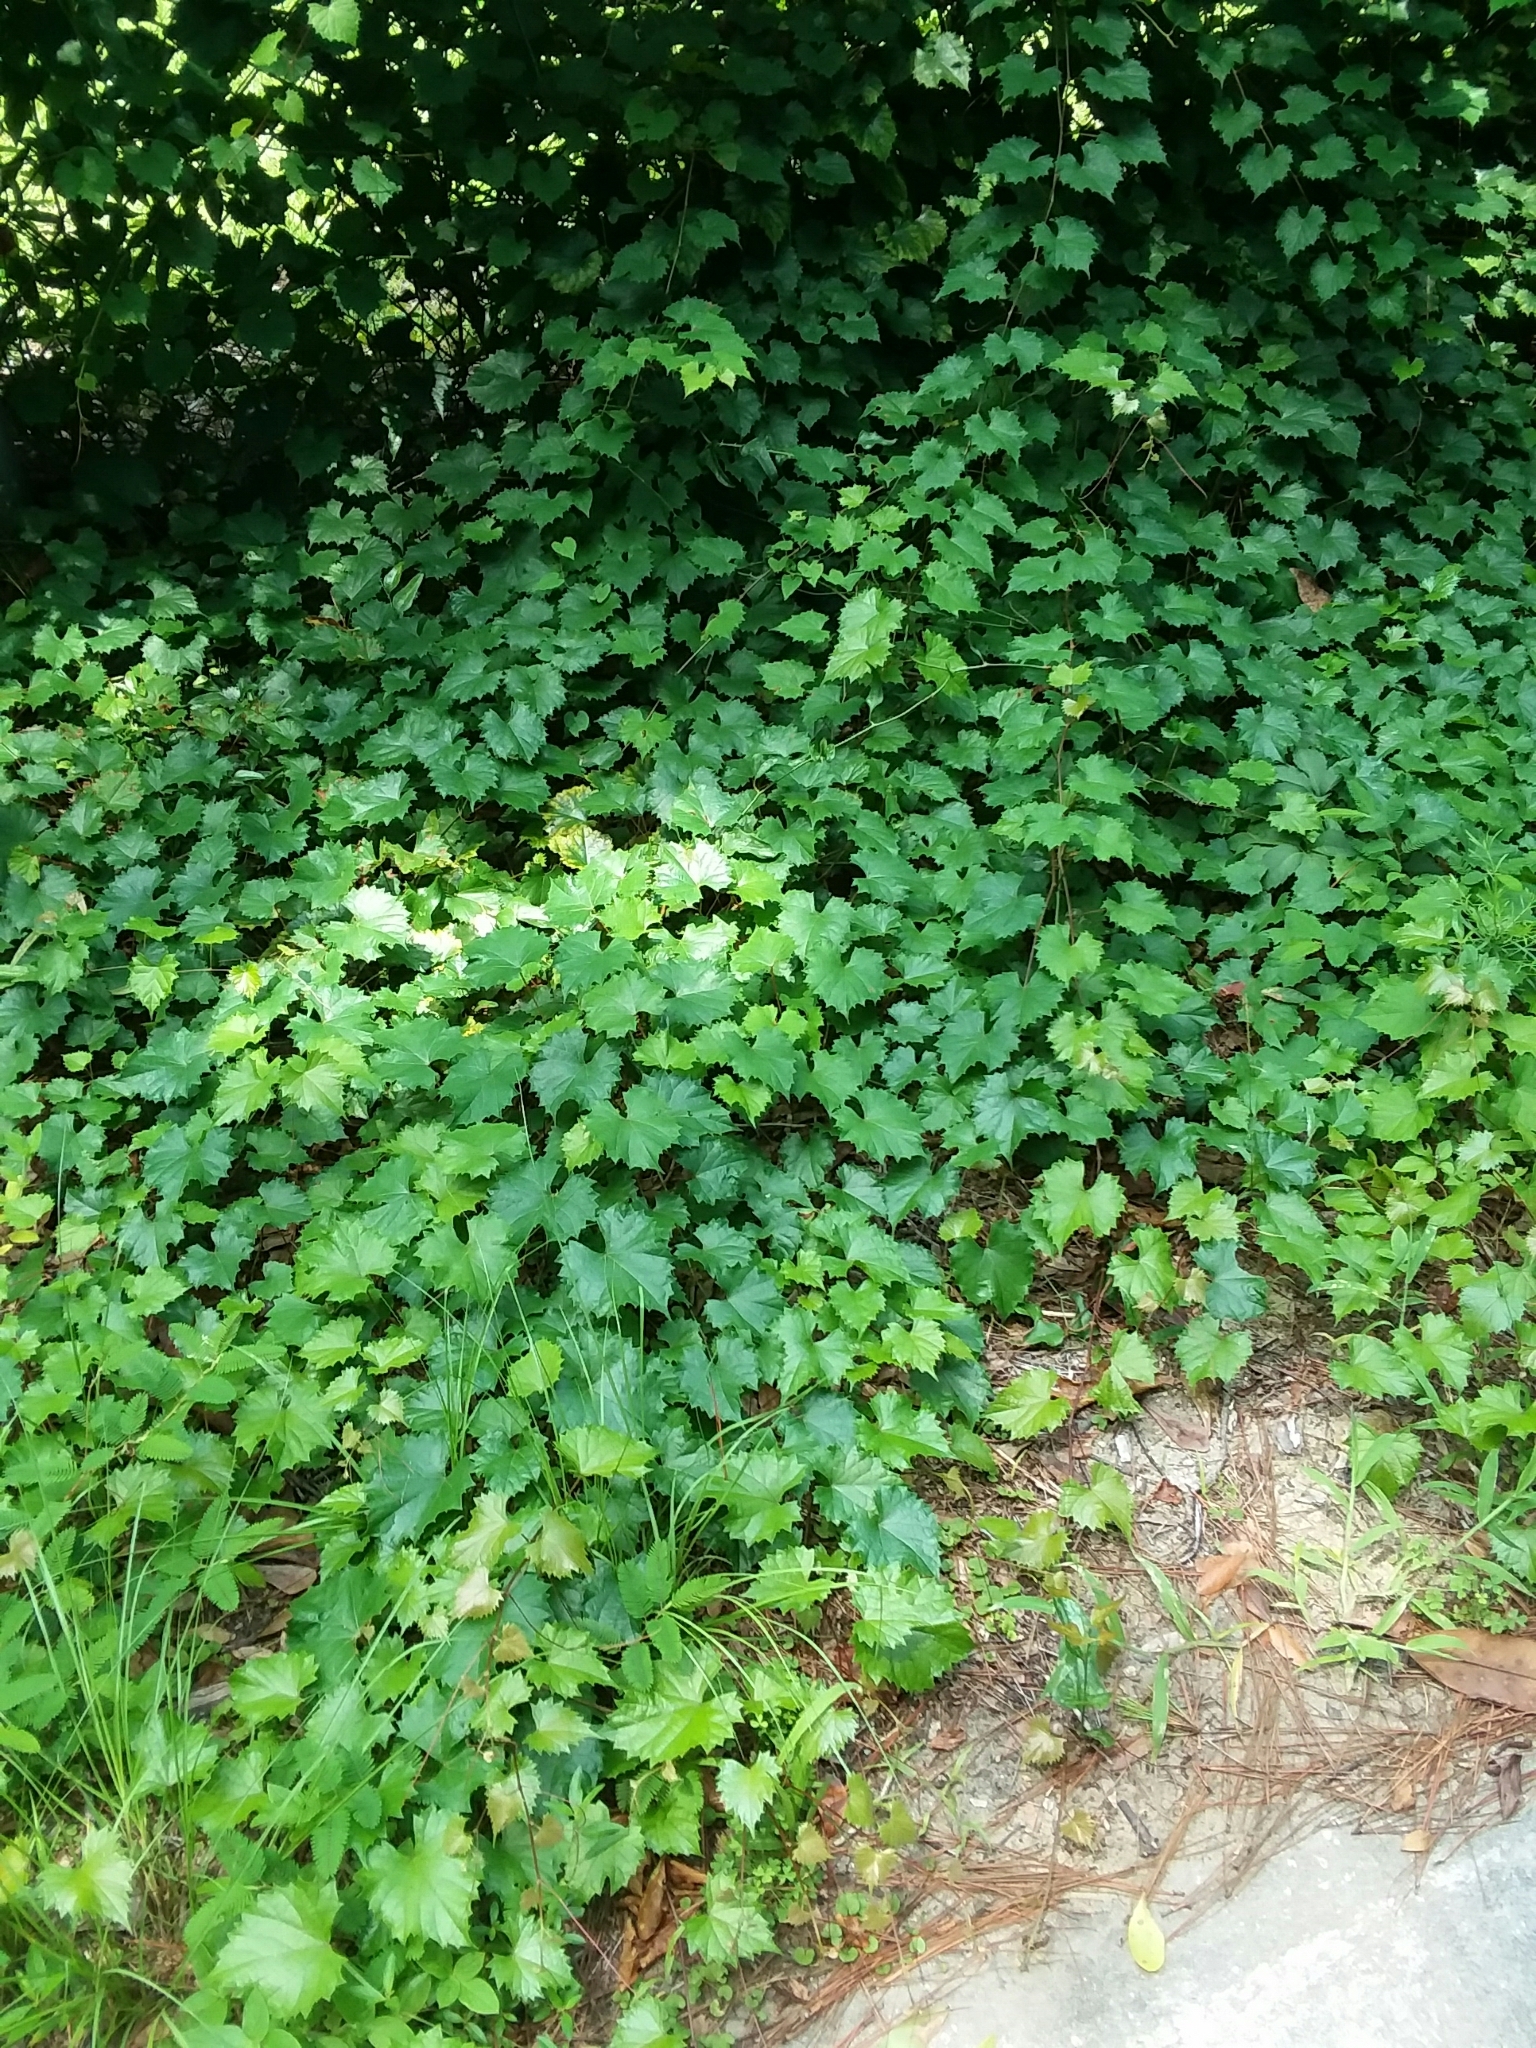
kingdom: Plantae
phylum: Tracheophyta
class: Magnoliopsida
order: Vitales
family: Vitaceae
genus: Vitis
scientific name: Vitis rotundifolia
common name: Muscadine grape
